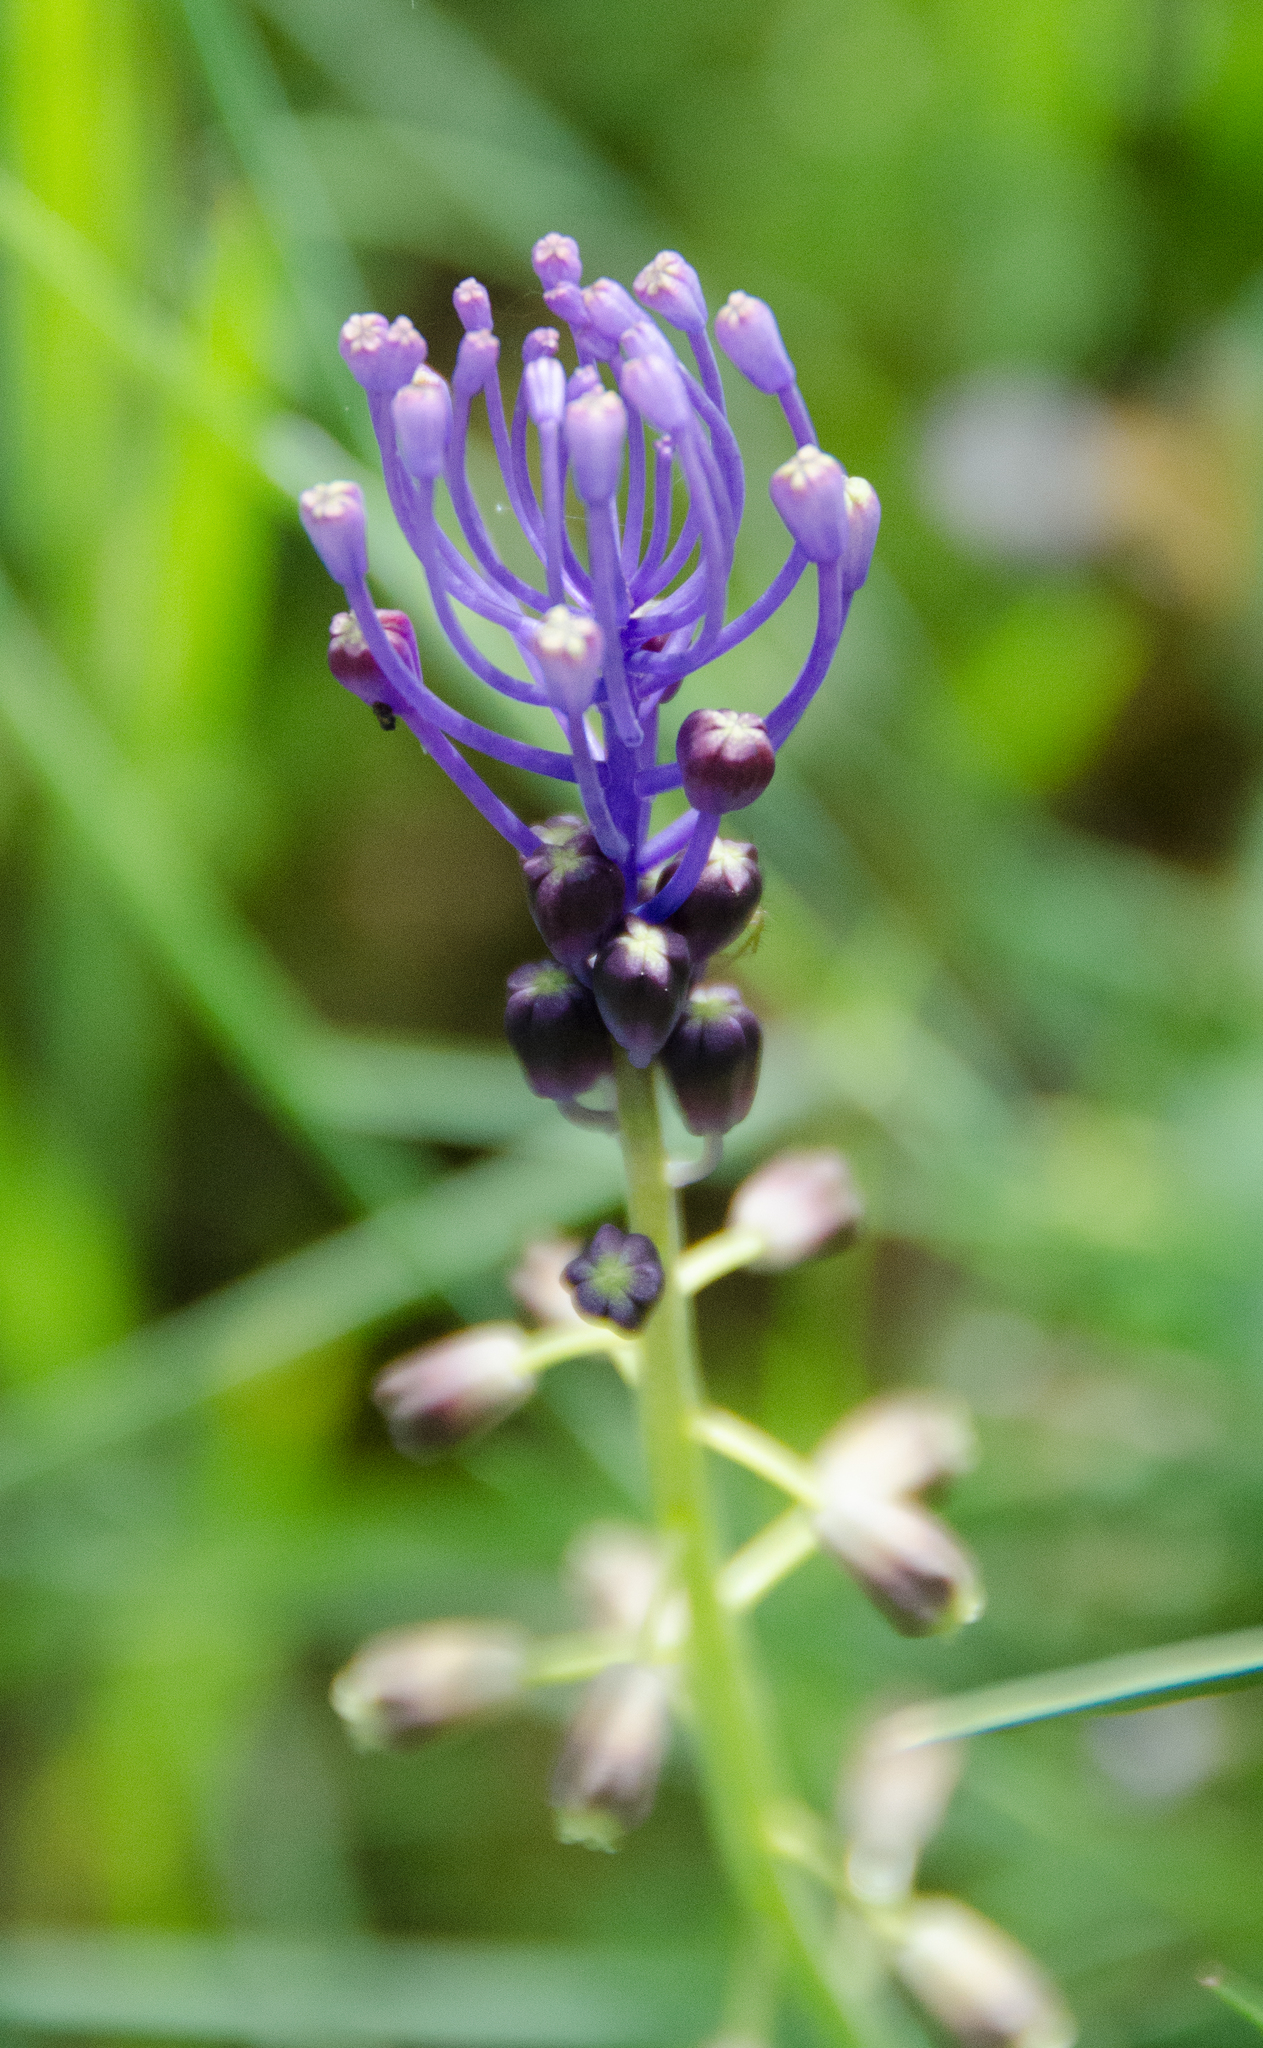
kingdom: Plantae
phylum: Tracheophyta
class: Liliopsida
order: Asparagales
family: Asparagaceae
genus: Muscari
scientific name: Muscari comosum
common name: Tassel hyacinth
